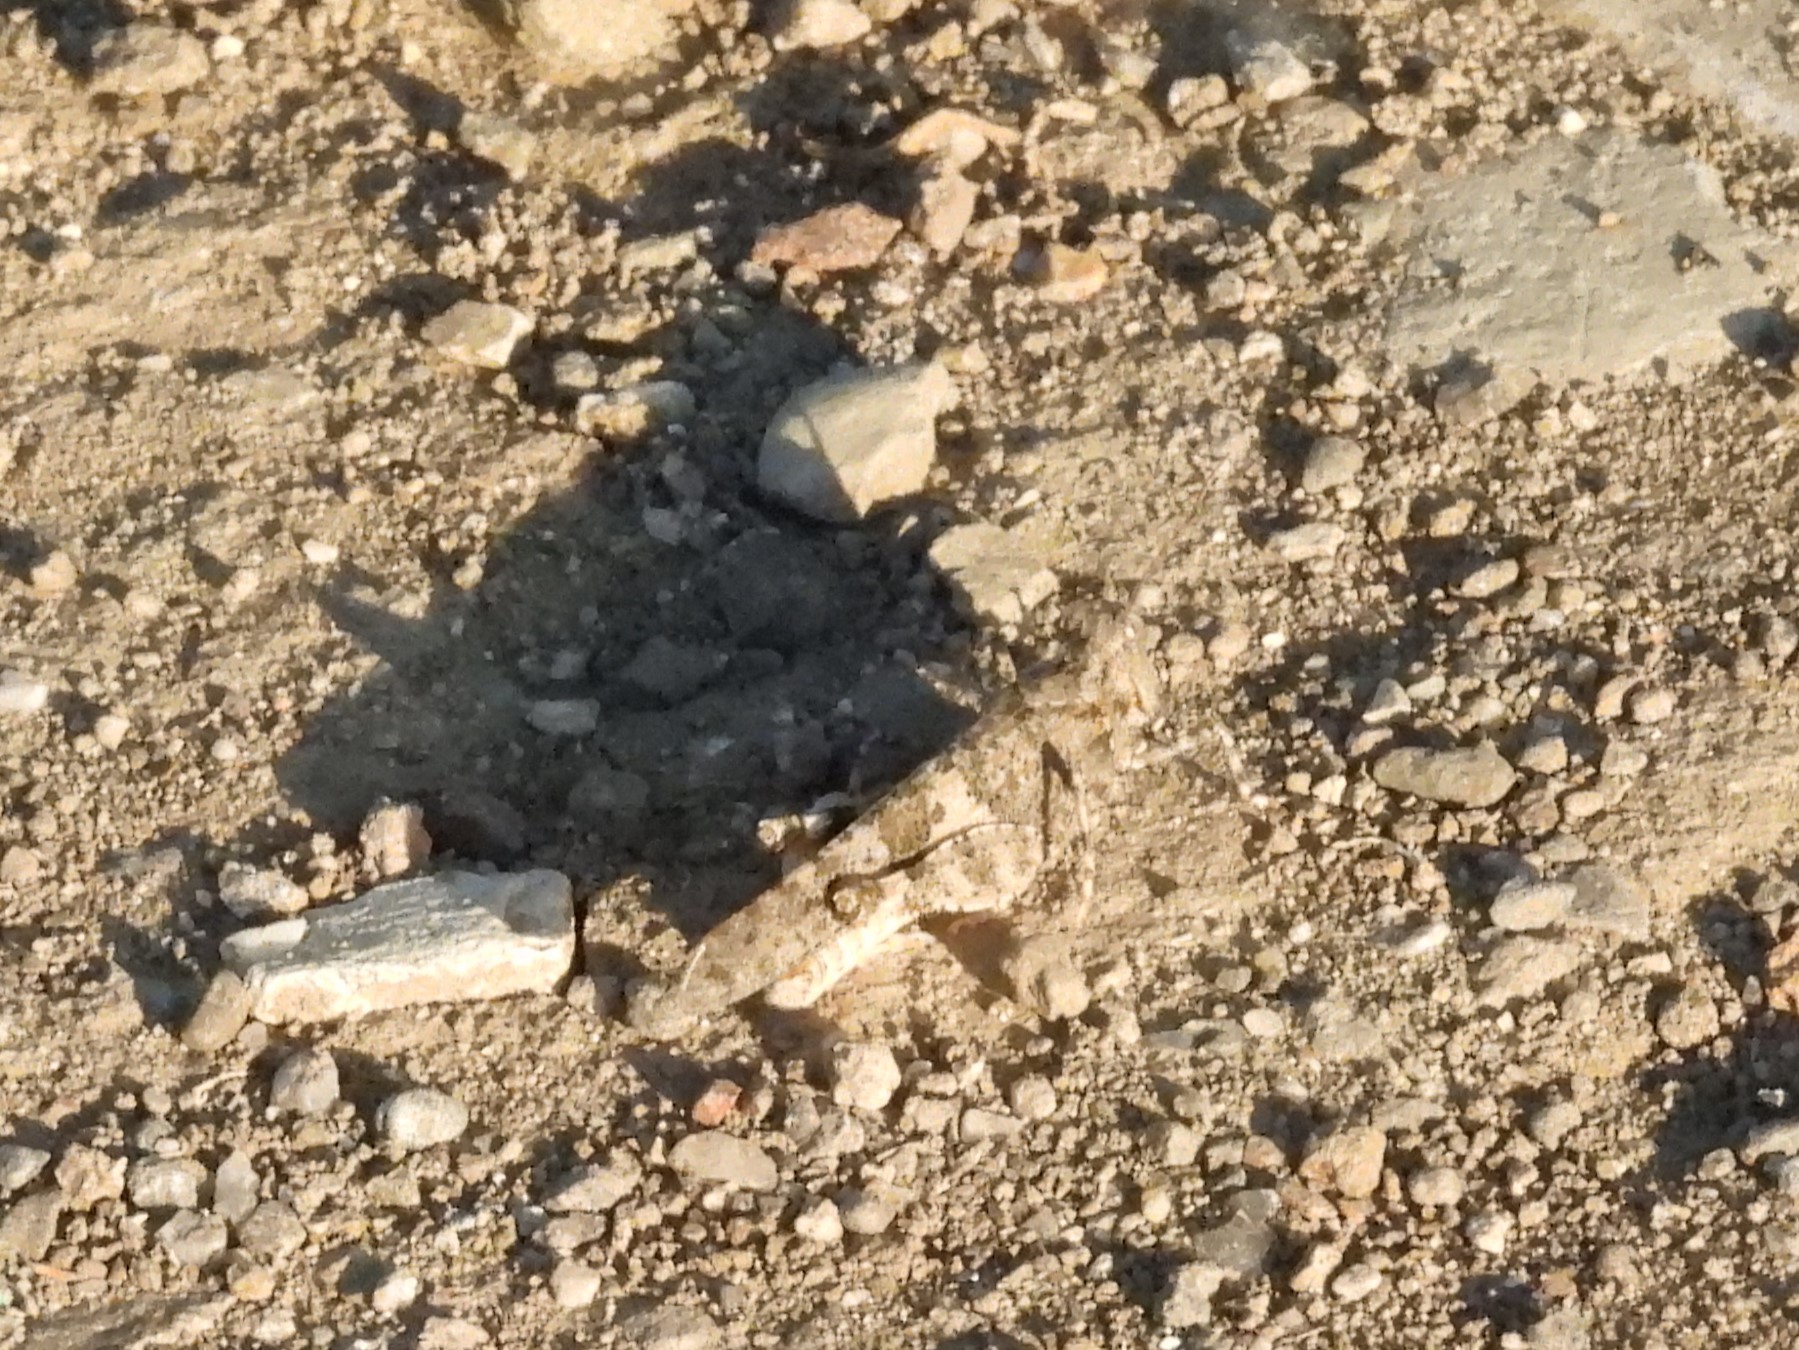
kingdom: Animalia
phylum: Arthropoda
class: Insecta
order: Orthoptera
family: Acrididae
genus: Trimerotropis
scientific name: Trimerotropis pallidipennis
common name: Pallid-winged grasshopper
